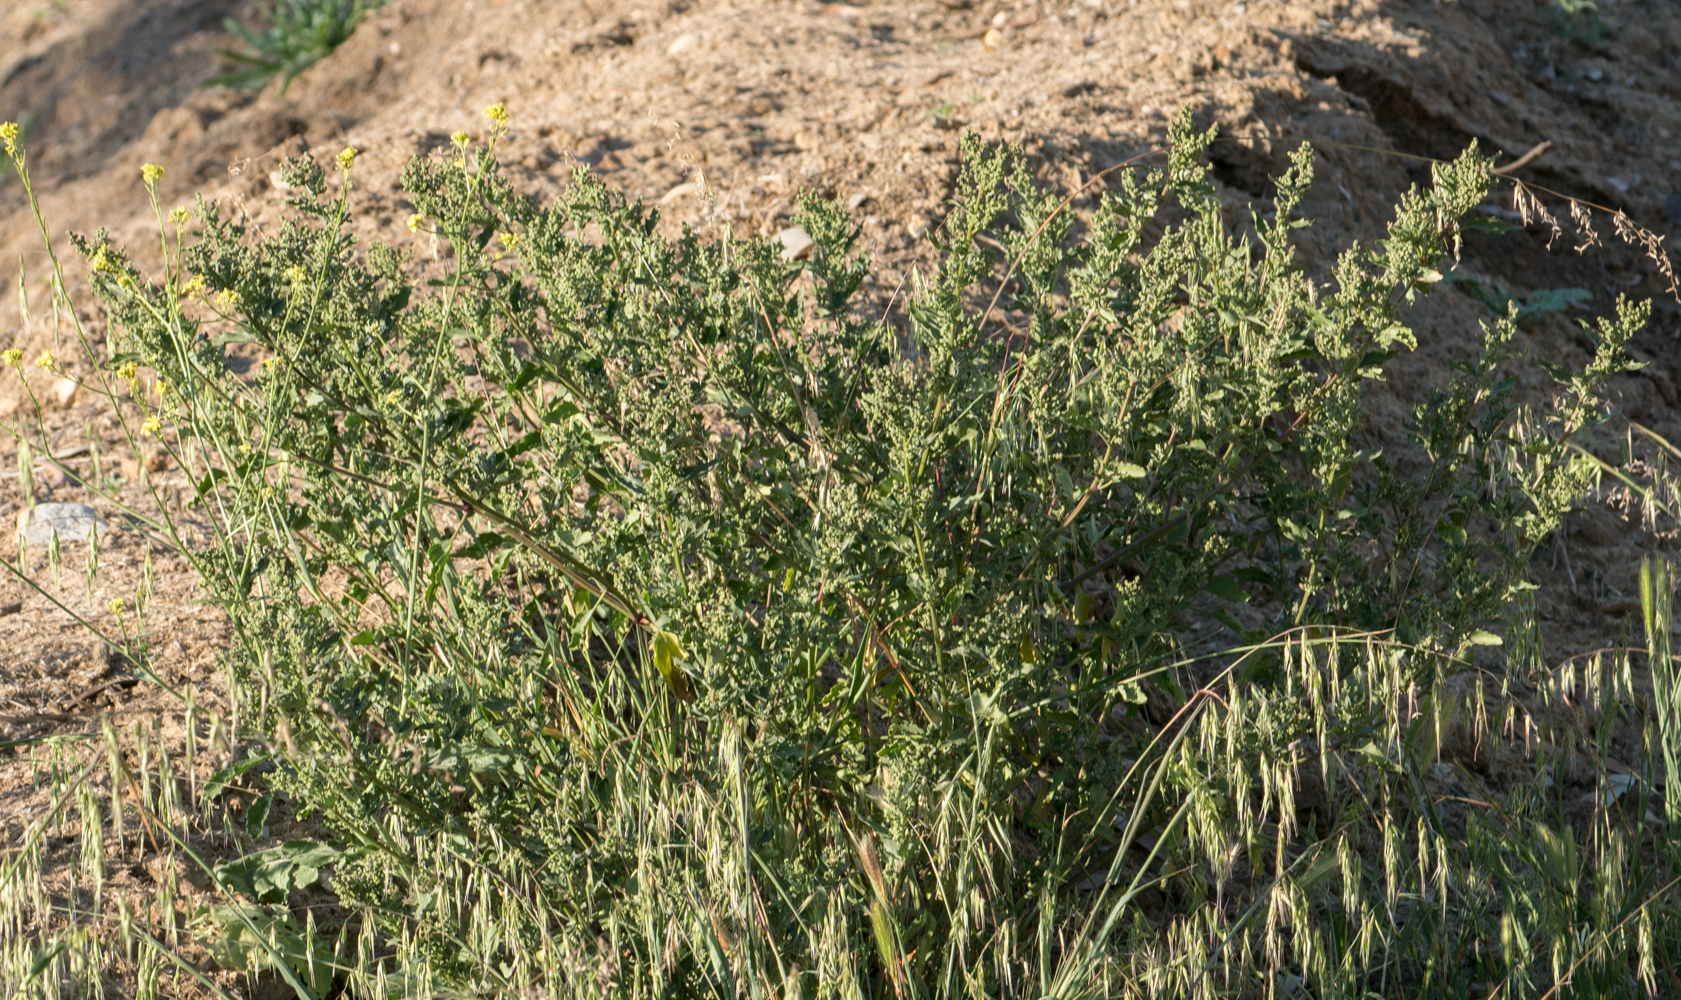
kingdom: Plantae
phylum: Tracheophyta
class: Magnoliopsida
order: Caryophyllales
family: Amaranthaceae
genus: Chenopodiastrum
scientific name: Chenopodiastrum murale
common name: Sowbane
